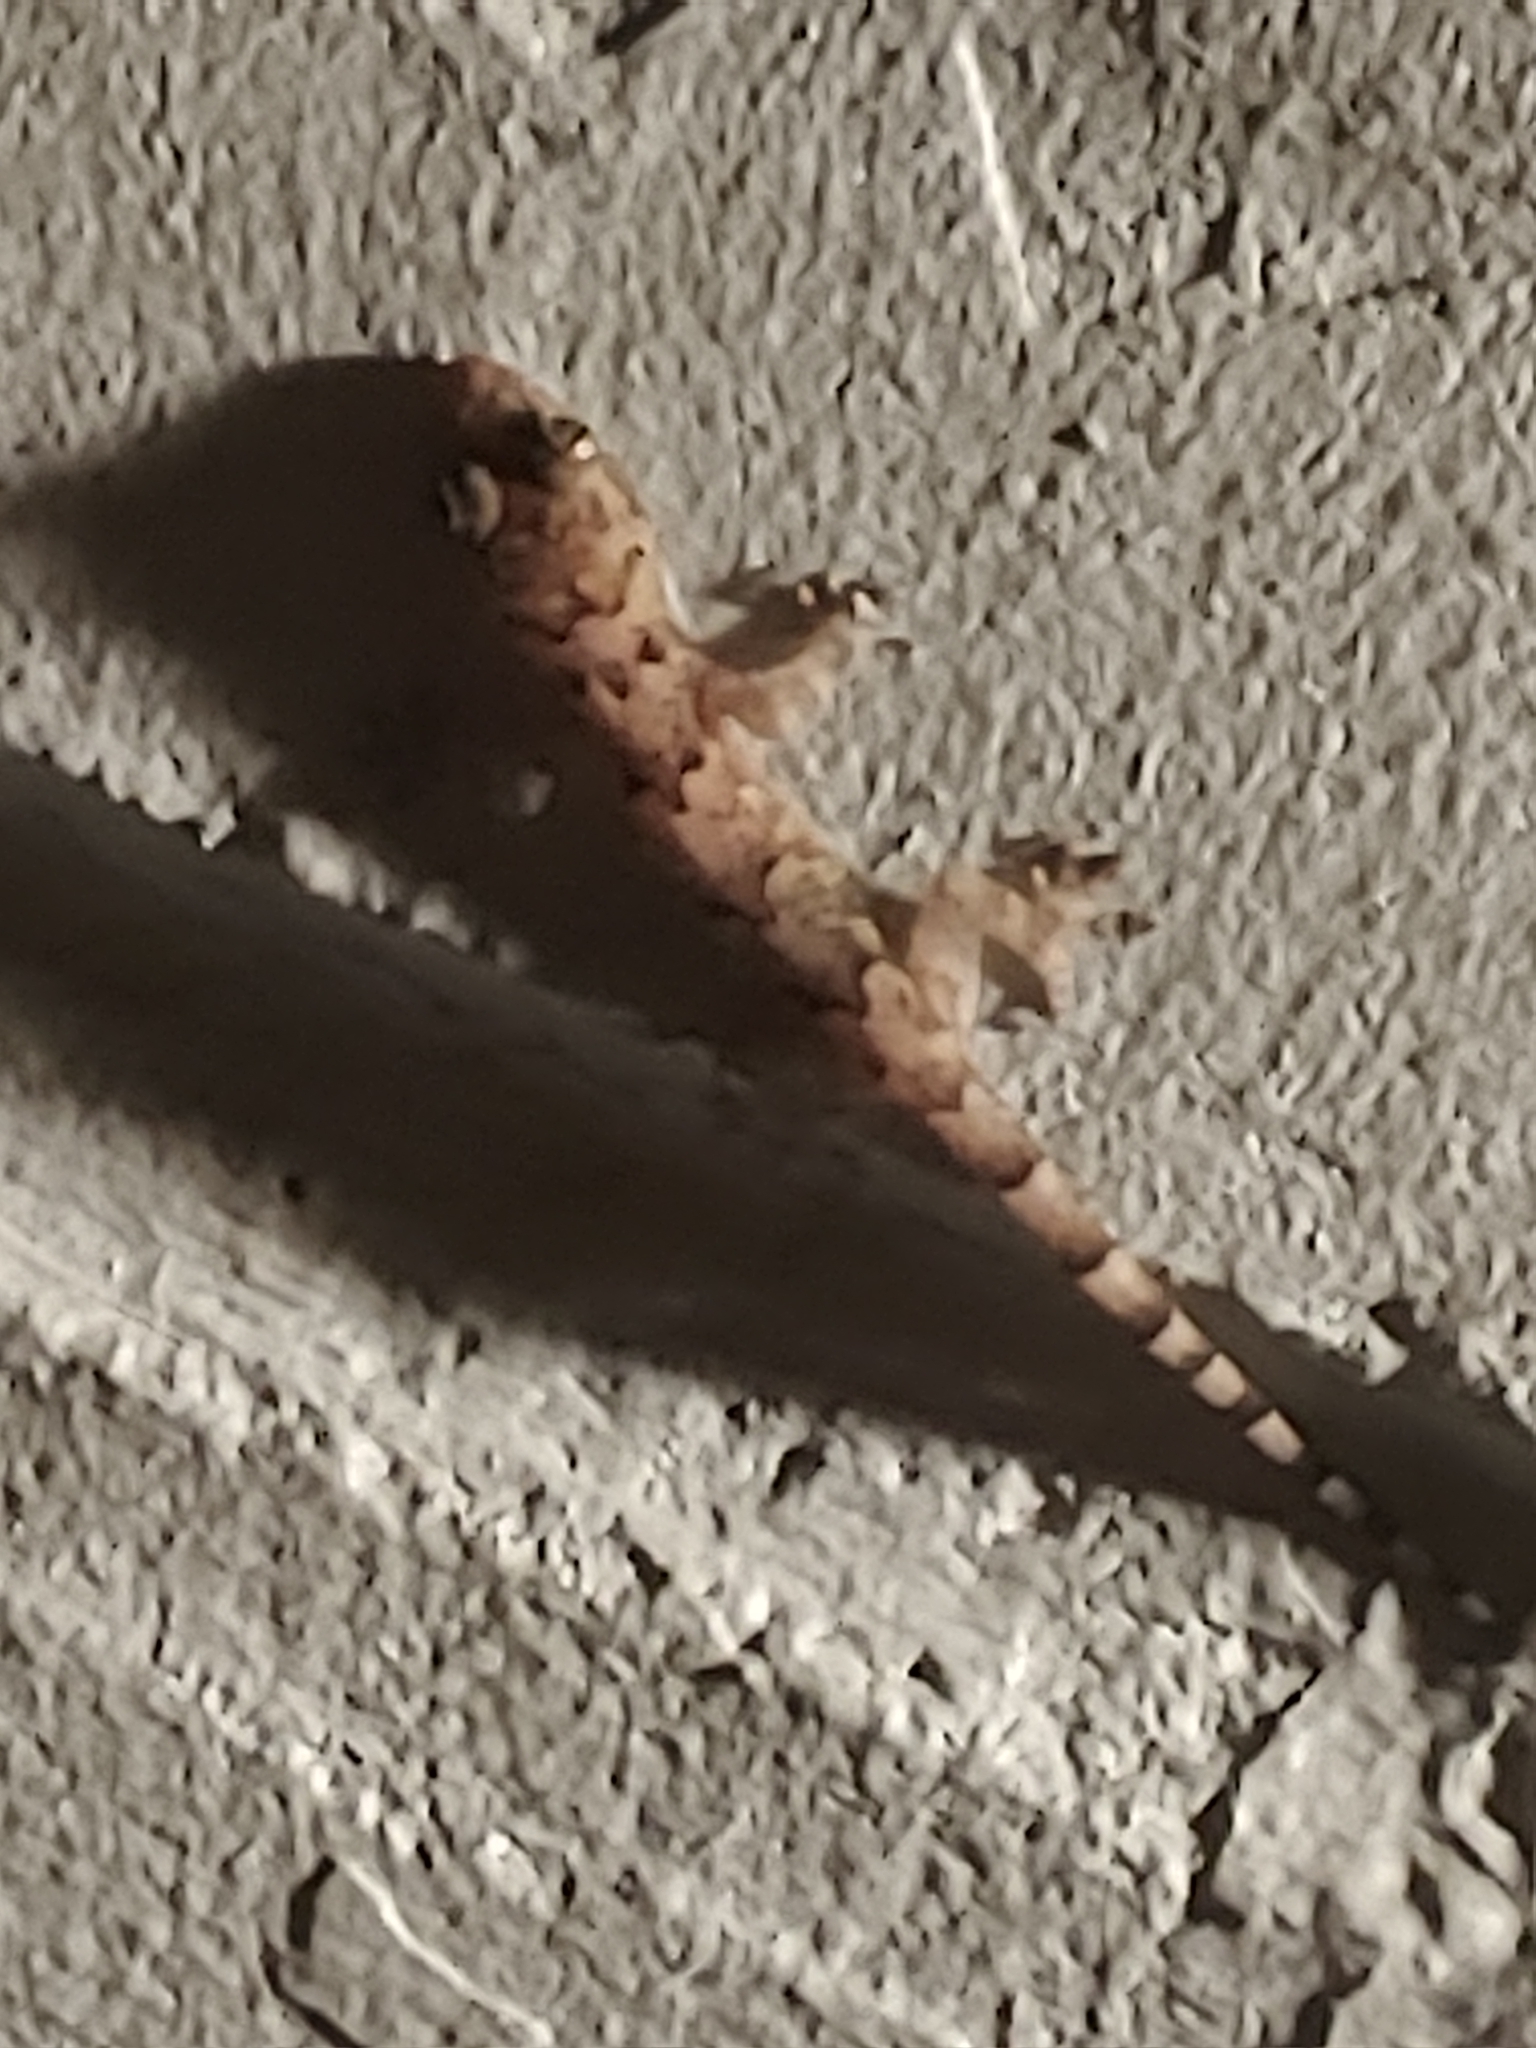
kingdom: Animalia
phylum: Chordata
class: Squamata
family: Gekkonidae
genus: Hemidactylus
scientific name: Hemidactylus mabouia
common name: House gecko
